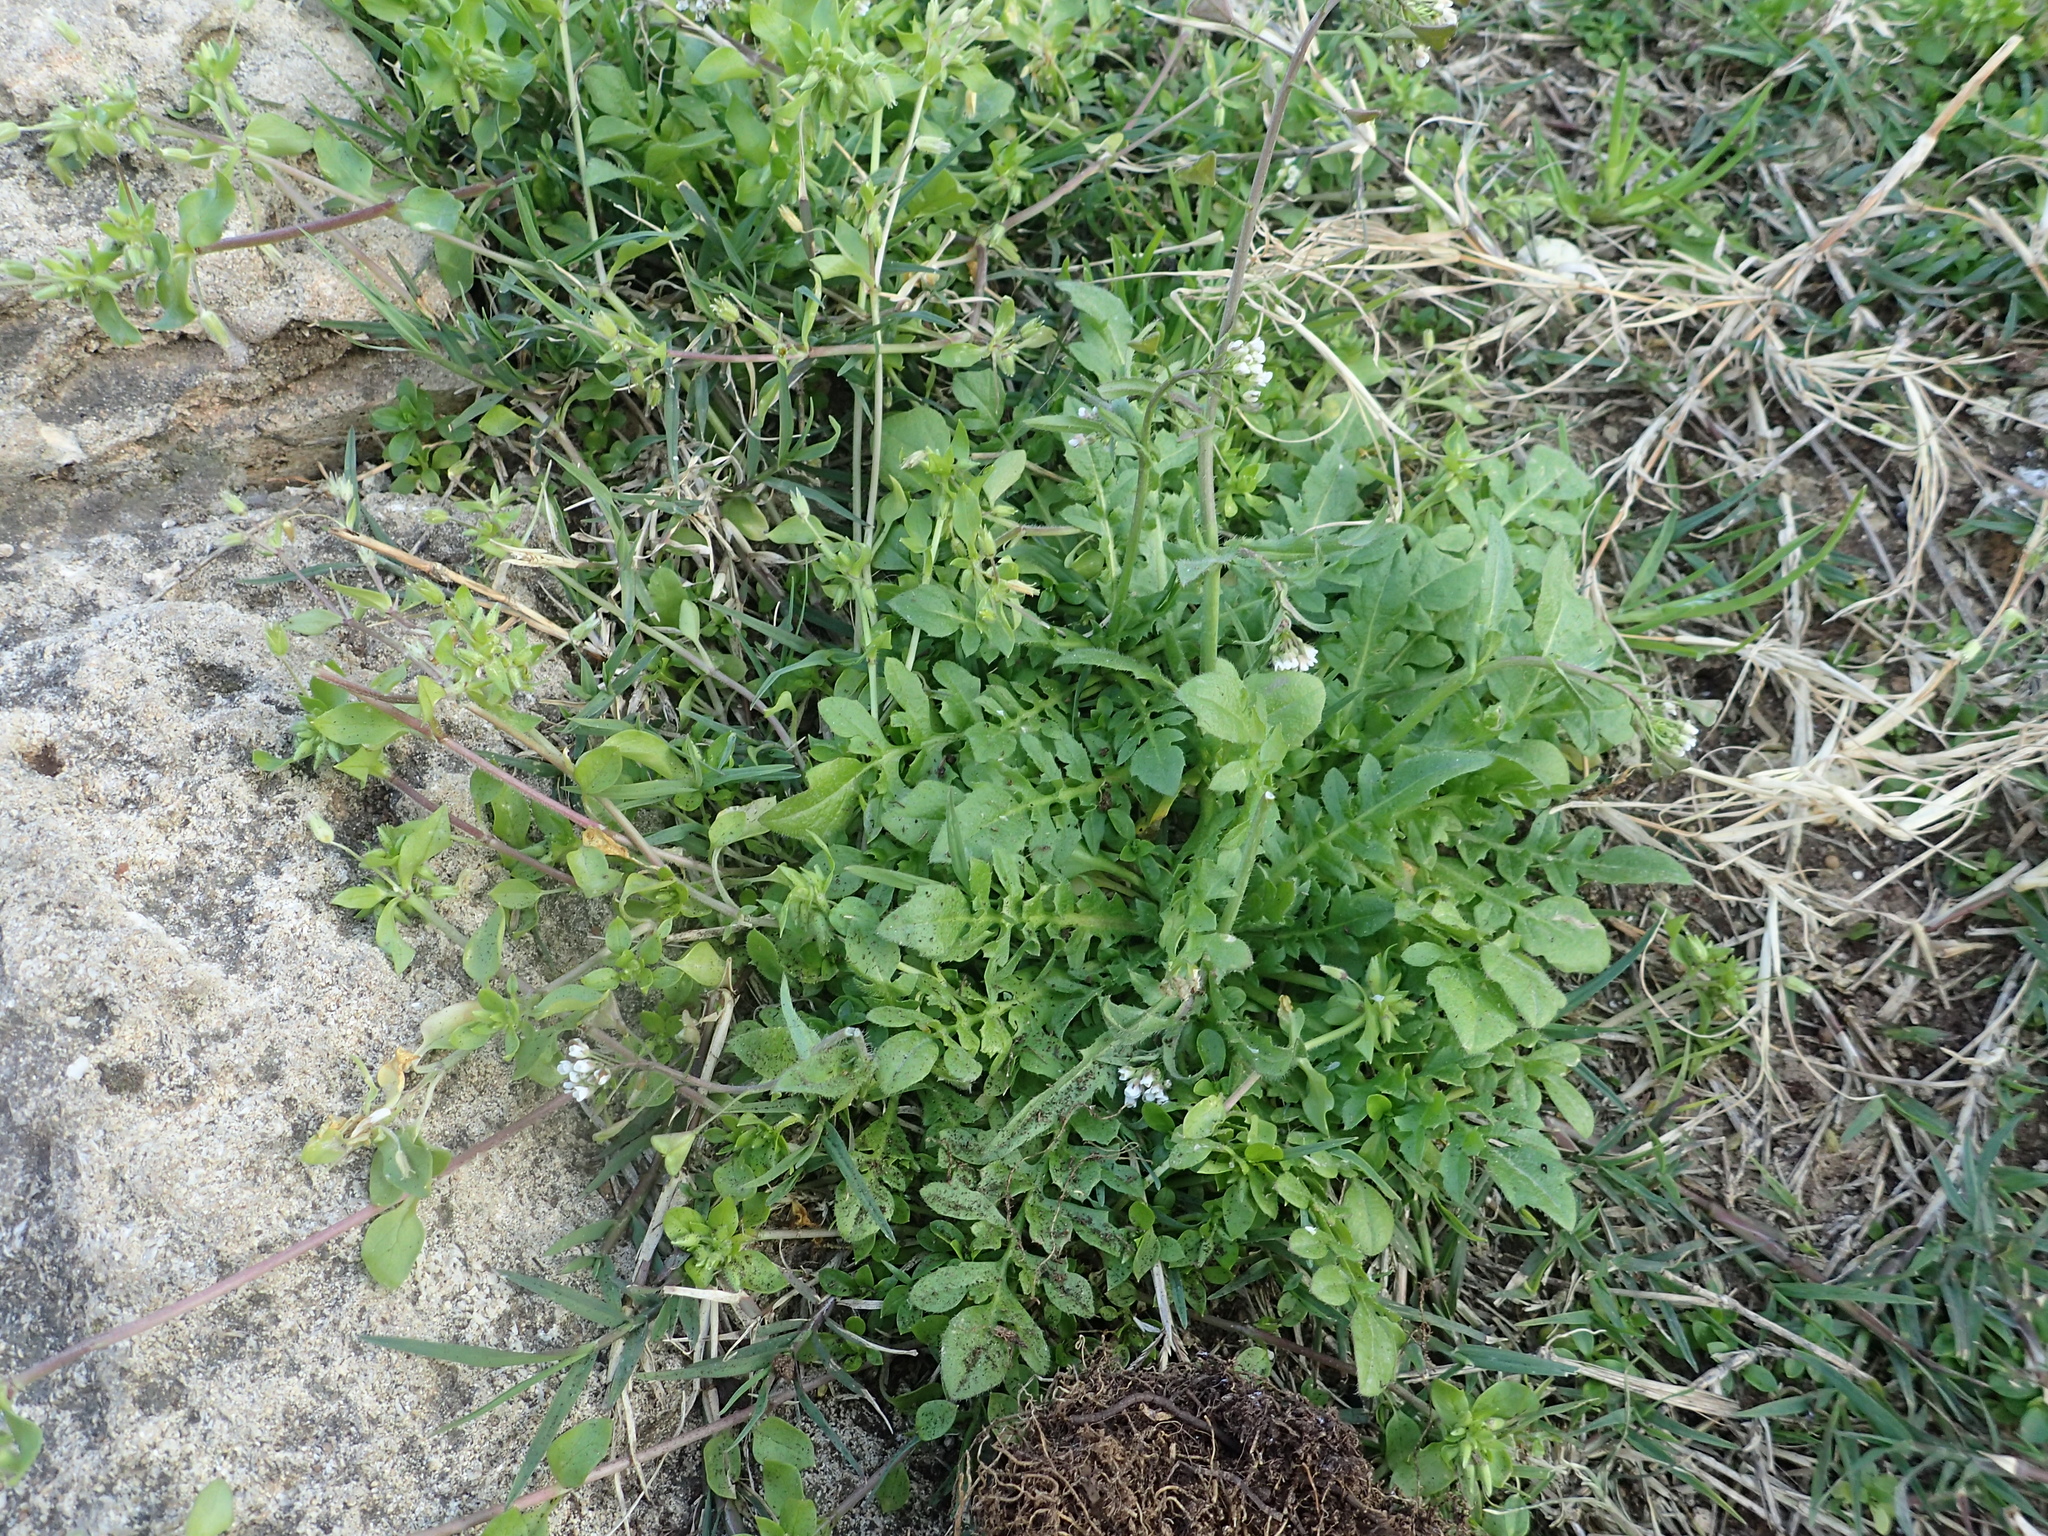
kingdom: Plantae
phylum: Tracheophyta
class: Magnoliopsida
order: Brassicales
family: Brassicaceae
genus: Capsella
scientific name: Capsella bursa-pastoris
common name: Shepherd's purse
